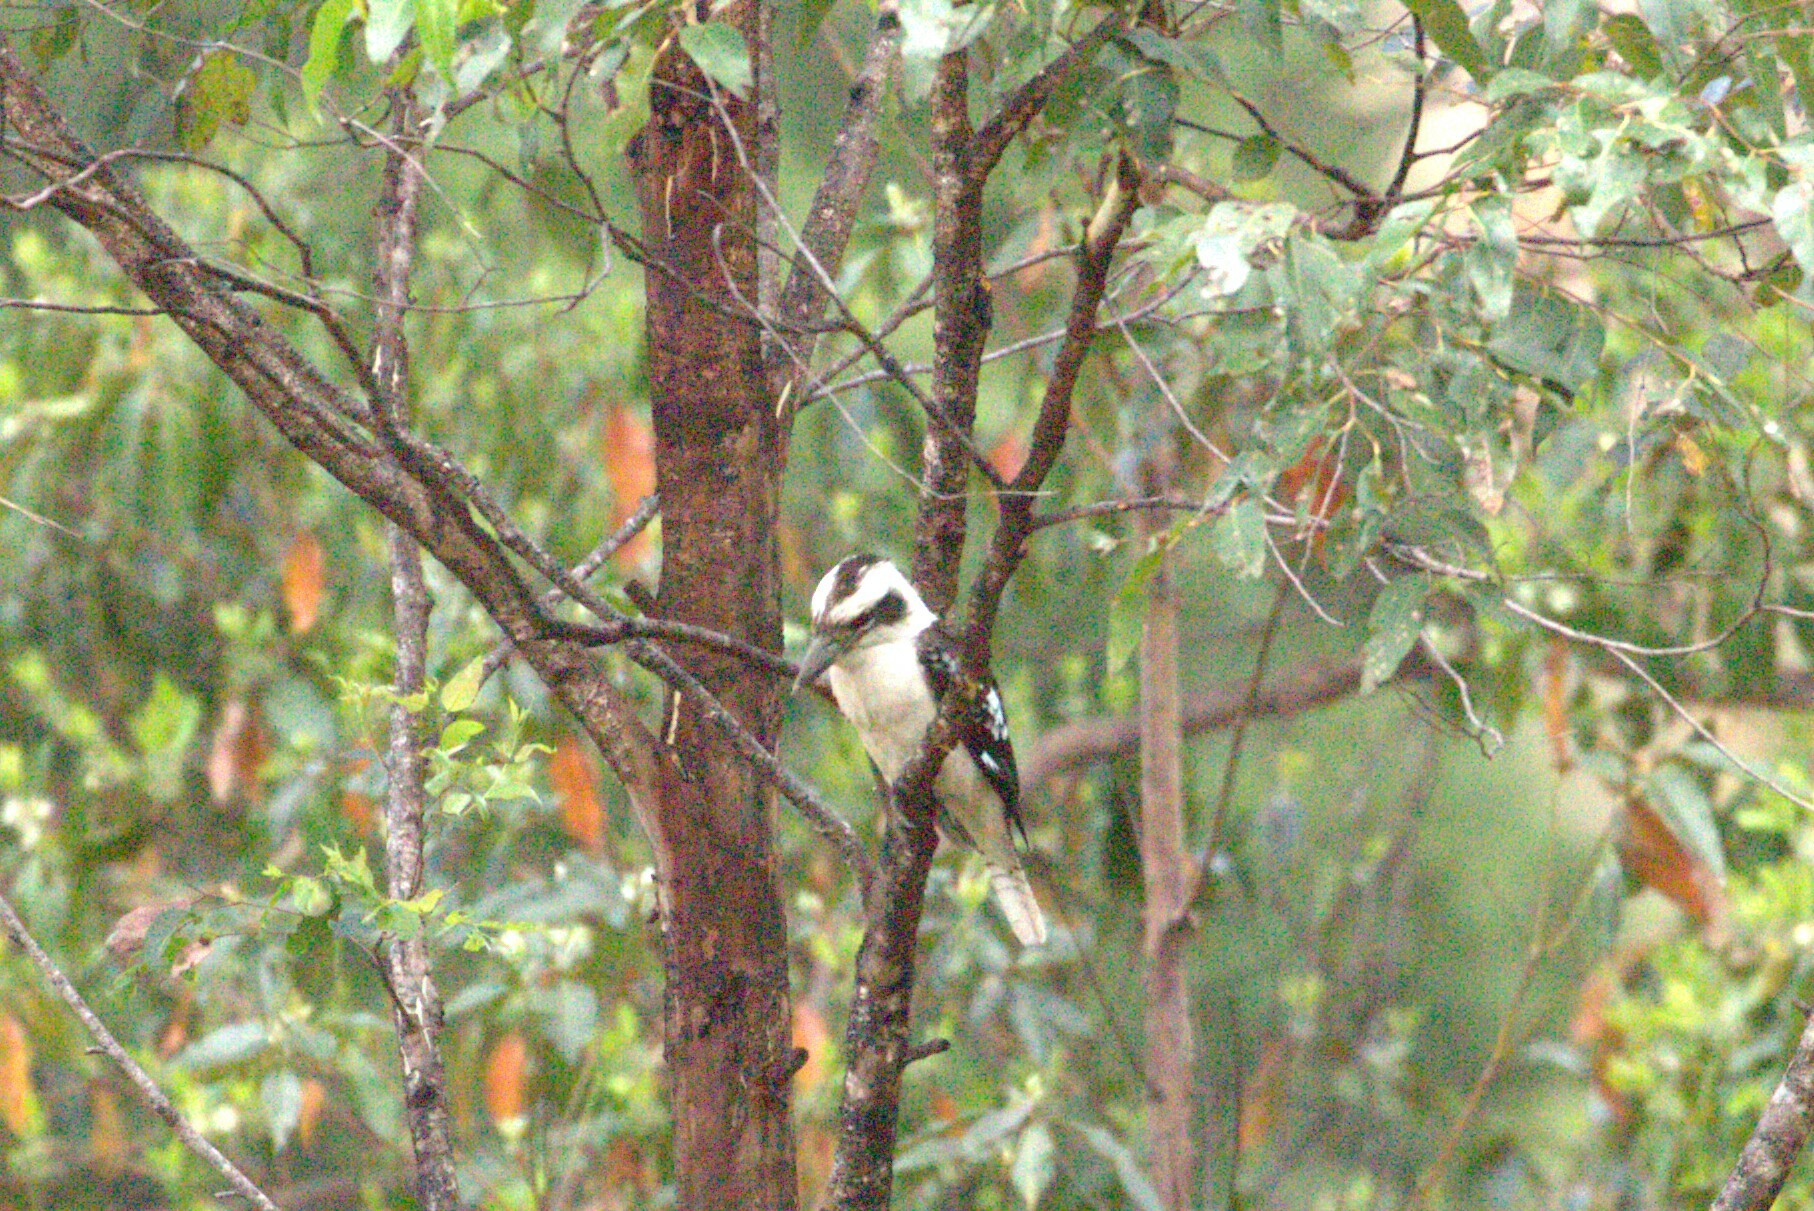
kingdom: Animalia
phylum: Chordata
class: Aves
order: Coraciiformes
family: Alcedinidae
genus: Dacelo
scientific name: Dacelo novaeguineae
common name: Laughing kookaburra
